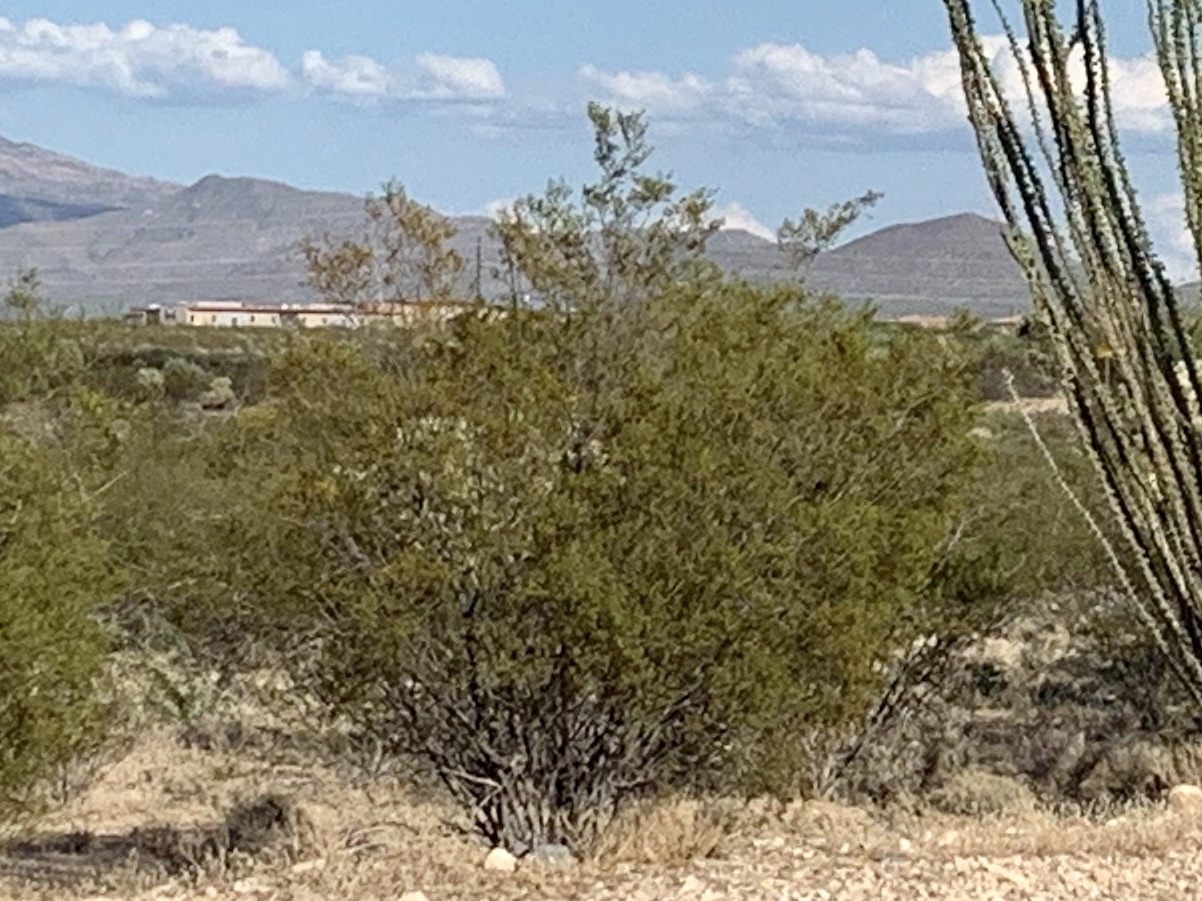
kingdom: Plantae
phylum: Tracheophyta
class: Magnoliopsida
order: Zygophyllales
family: Zygophyllaceae
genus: Larrea
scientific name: Larrea tridentata
